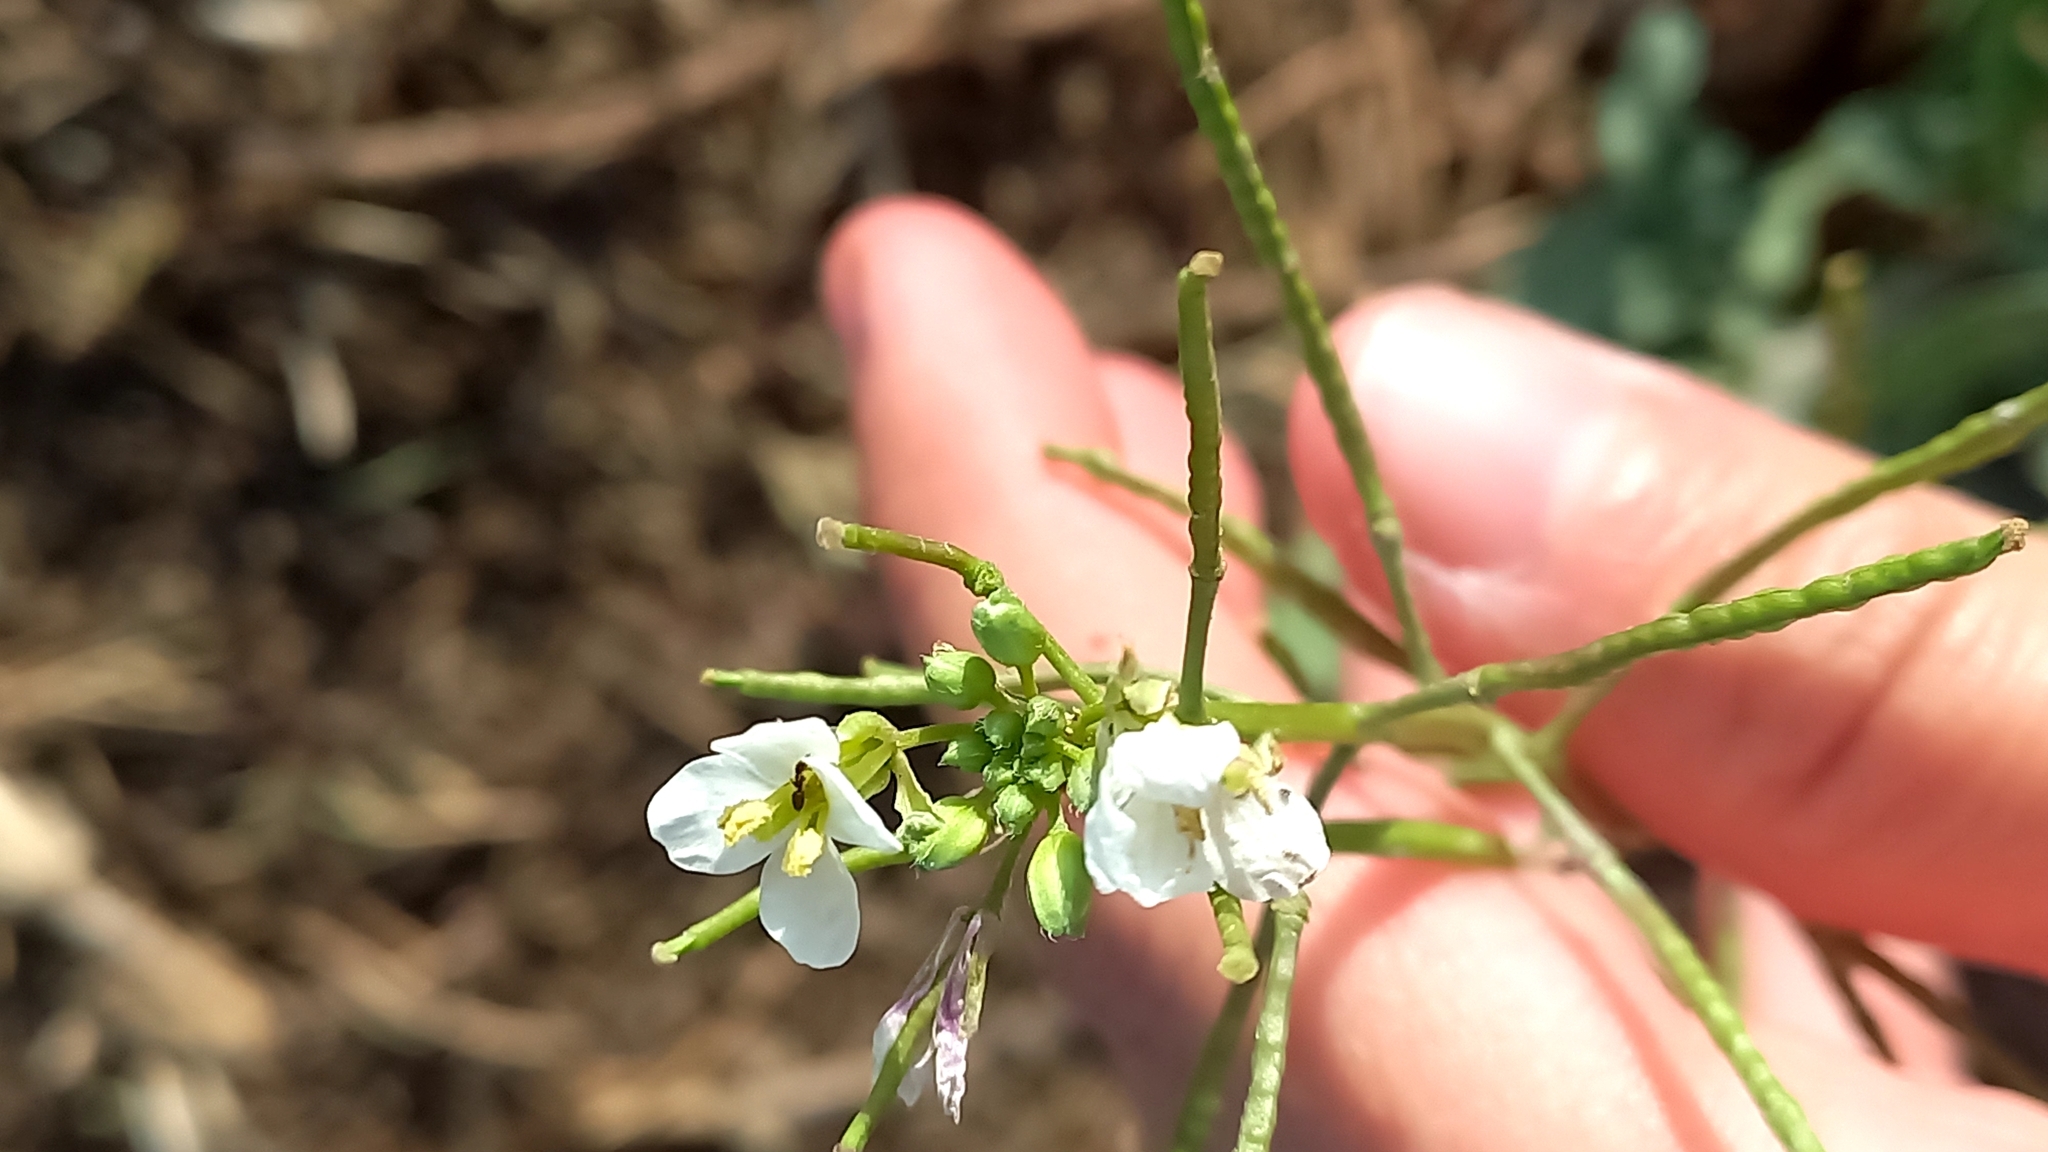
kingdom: Plantae
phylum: Tracheophyta
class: Magnoliopsida
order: Brassicales
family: Brassicaceae
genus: Diplotaxis
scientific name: Diplotaxis erucoides
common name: White rocket
